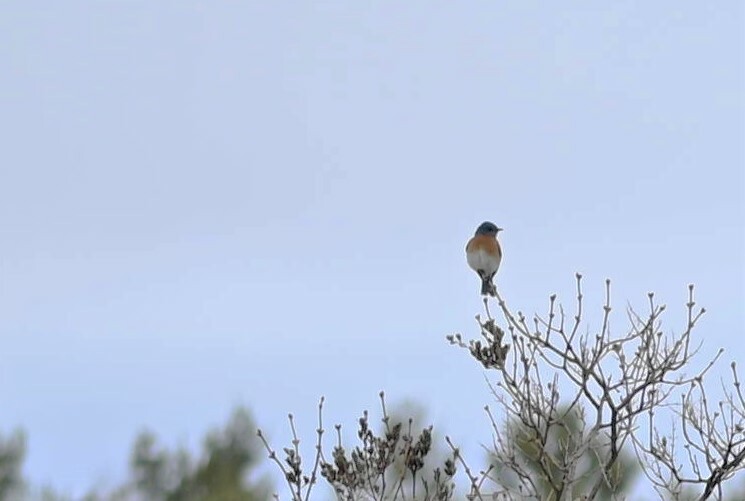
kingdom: Animalia
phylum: Chordata
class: Aves
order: Passeriformes
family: Turdidae
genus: Sialia
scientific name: Sialia sialis
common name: Eastern bluebird
